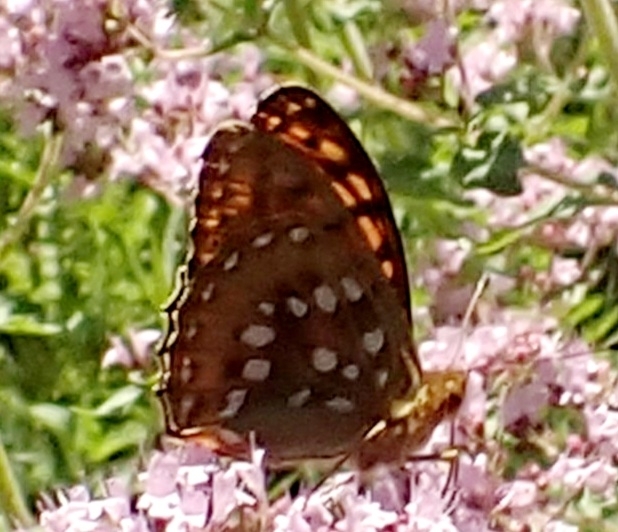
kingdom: Animalia
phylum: Arthropoda
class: Insecta
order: Lepidoptera
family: Nymphalidae
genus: Speyeria
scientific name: Speyeria aglaja
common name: Dark green fritillary
